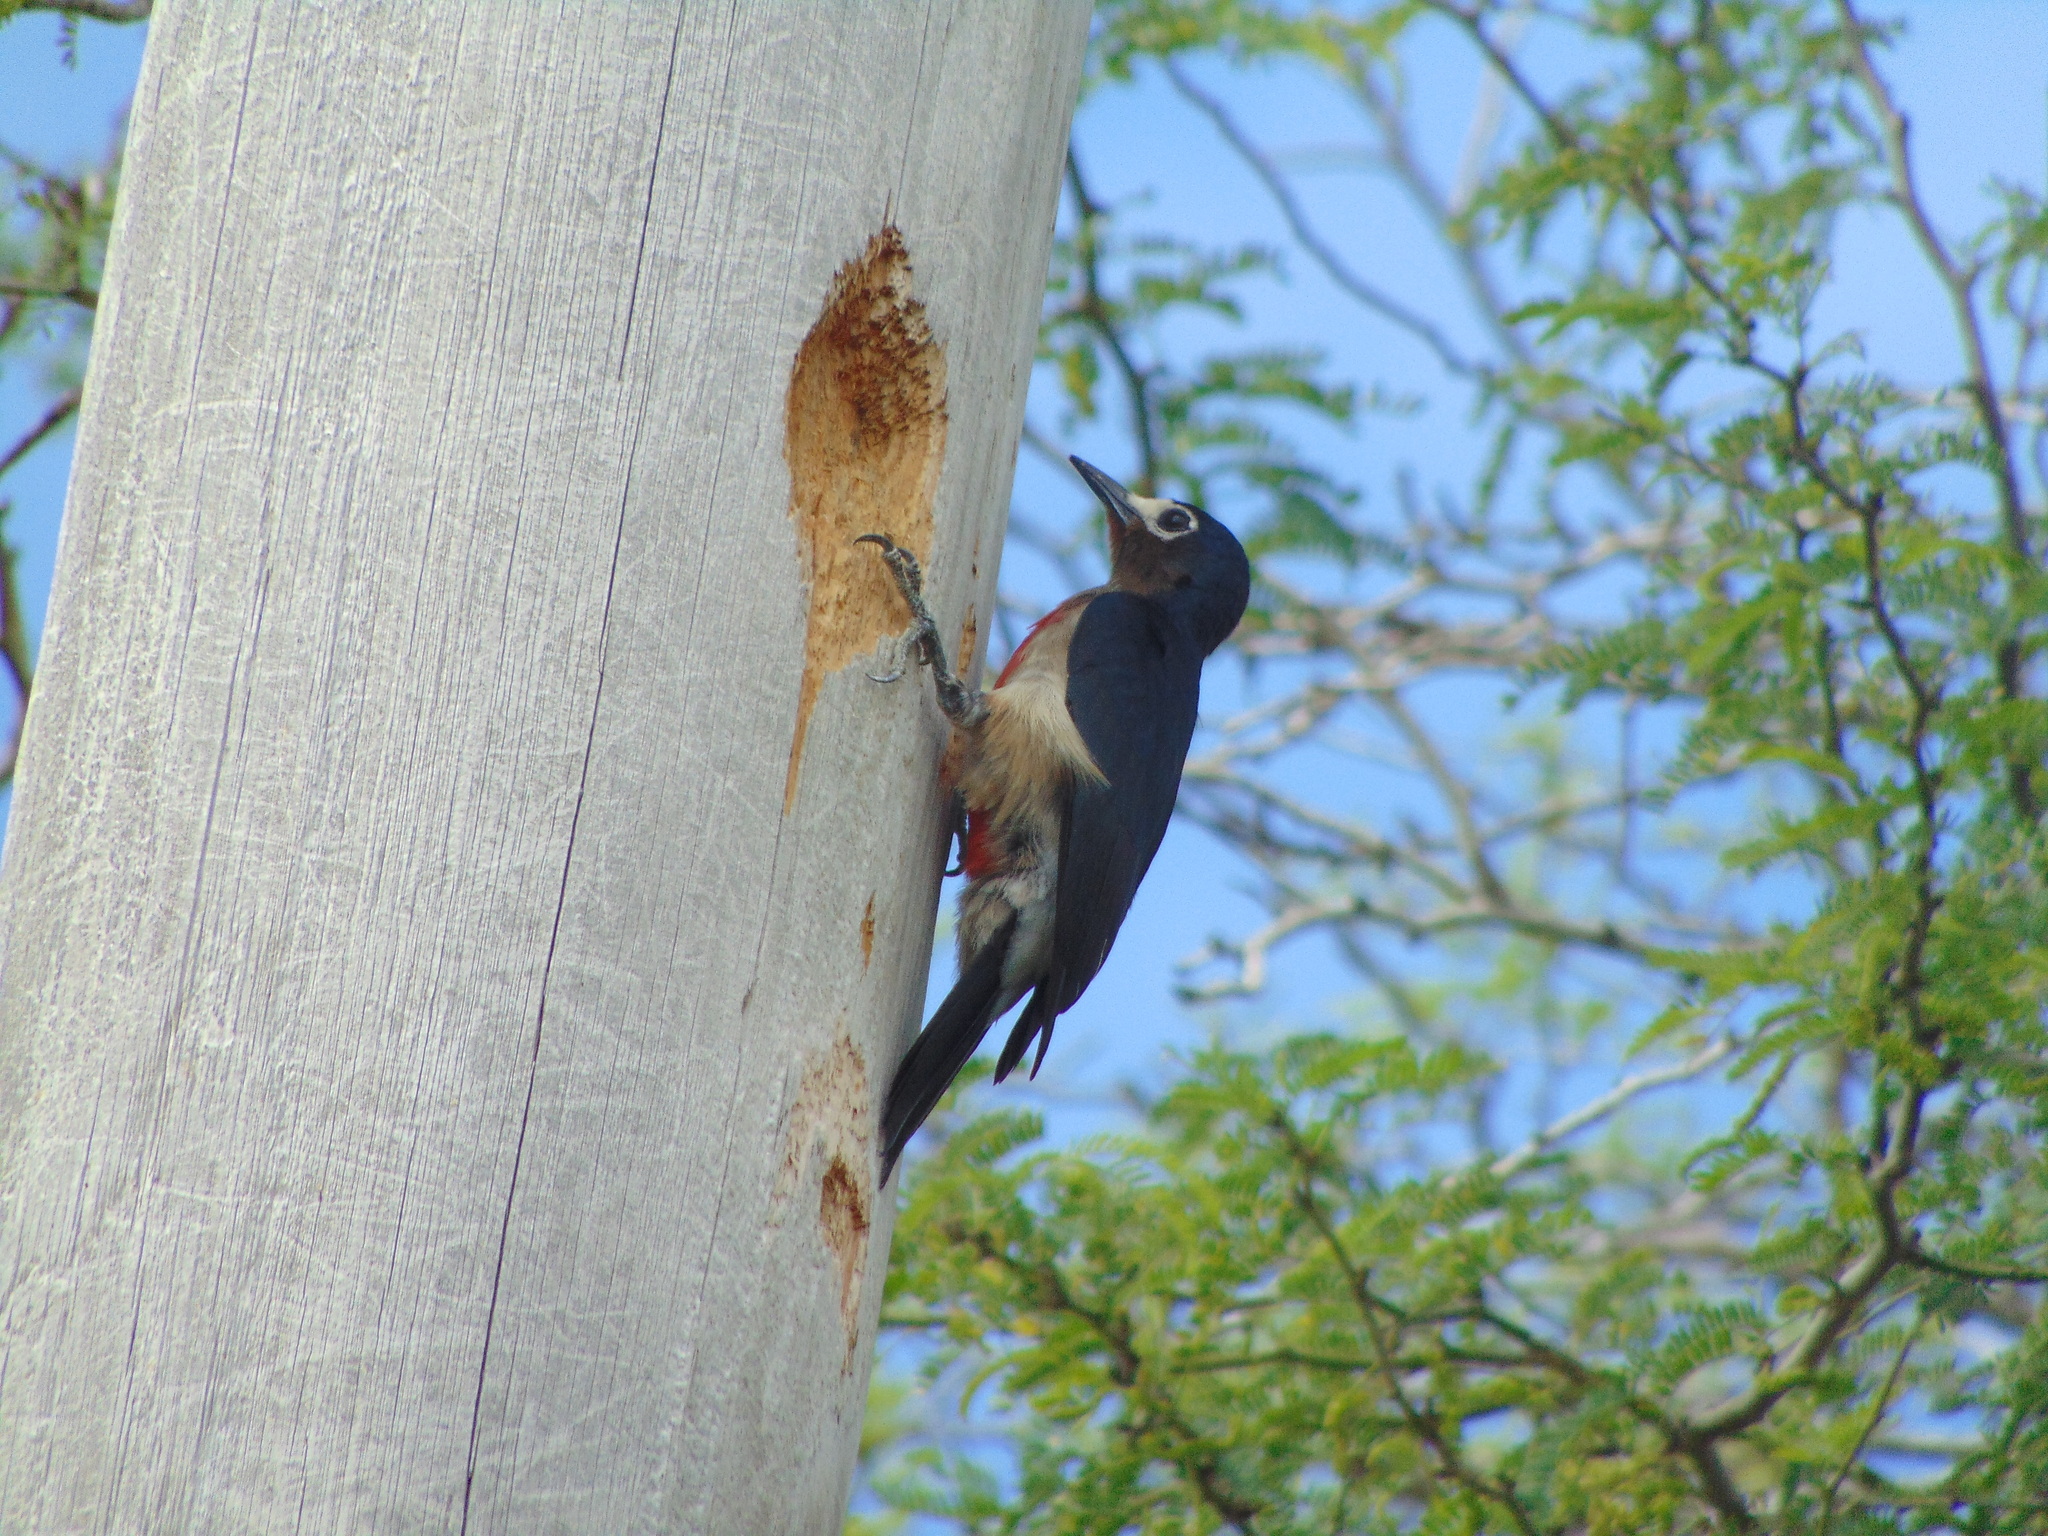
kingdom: Animalia
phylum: Chordata
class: Aves
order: Piciformes
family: Picidae
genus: Melanerpes
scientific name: Melanerpes portoricensis
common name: Puerto rican woodpecker
